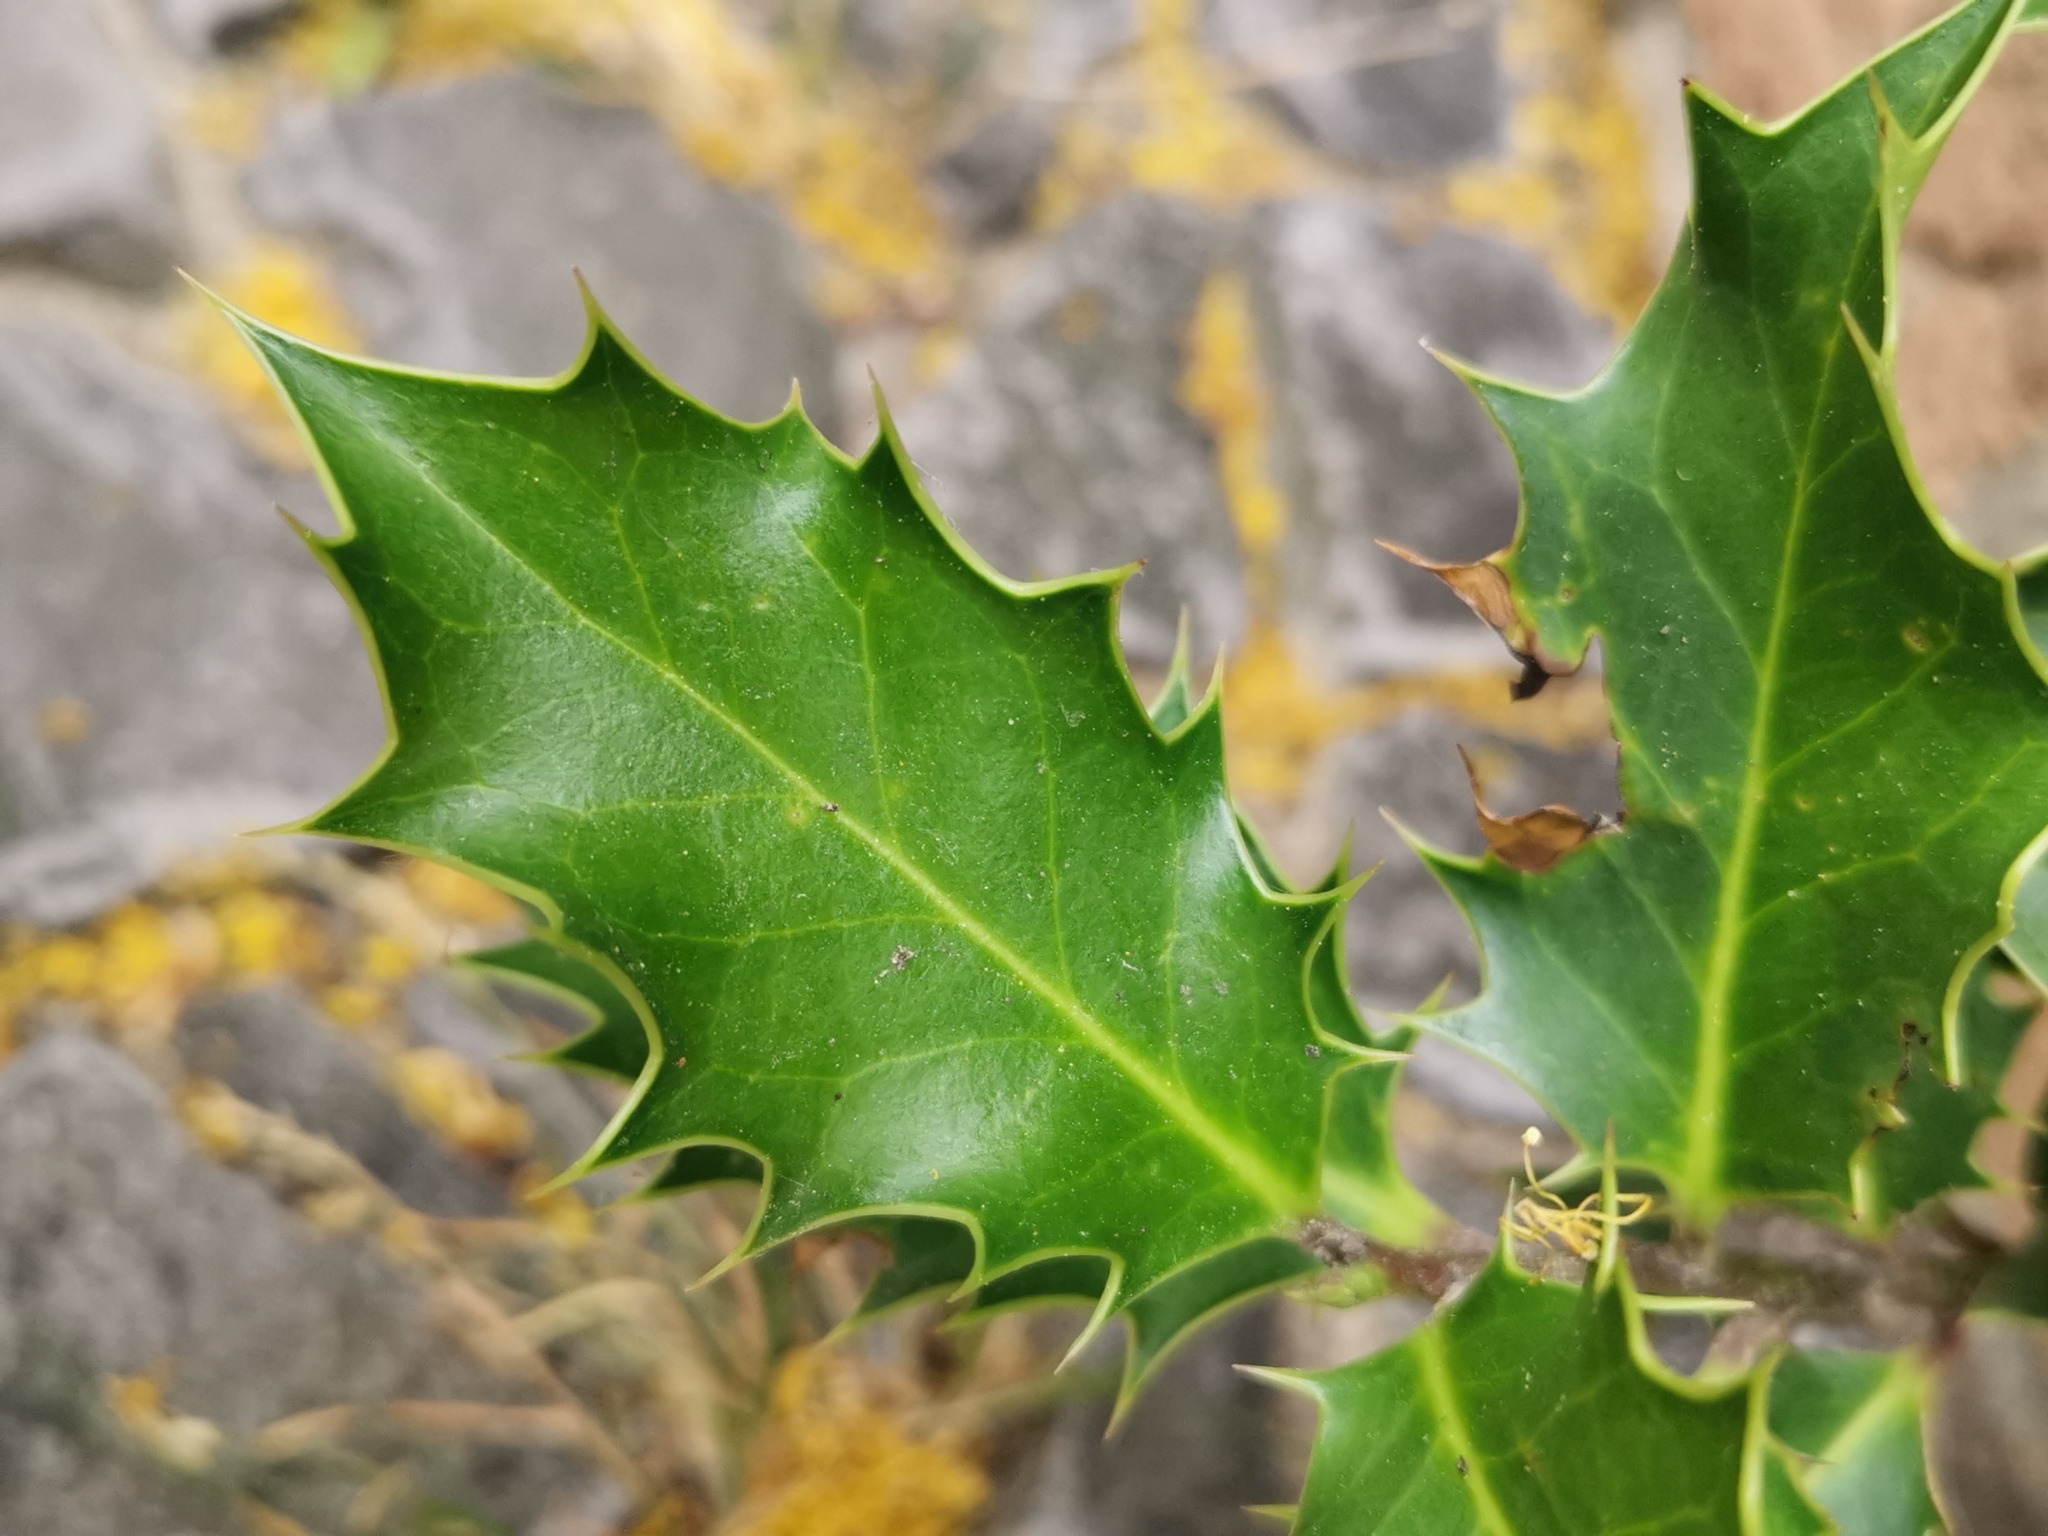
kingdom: Plantae
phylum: Tracheophyta
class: Magnoliopsida
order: Aquifoliales
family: Aquifoliaceae
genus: Ilex
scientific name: Ilex aquifolium
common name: English holly
